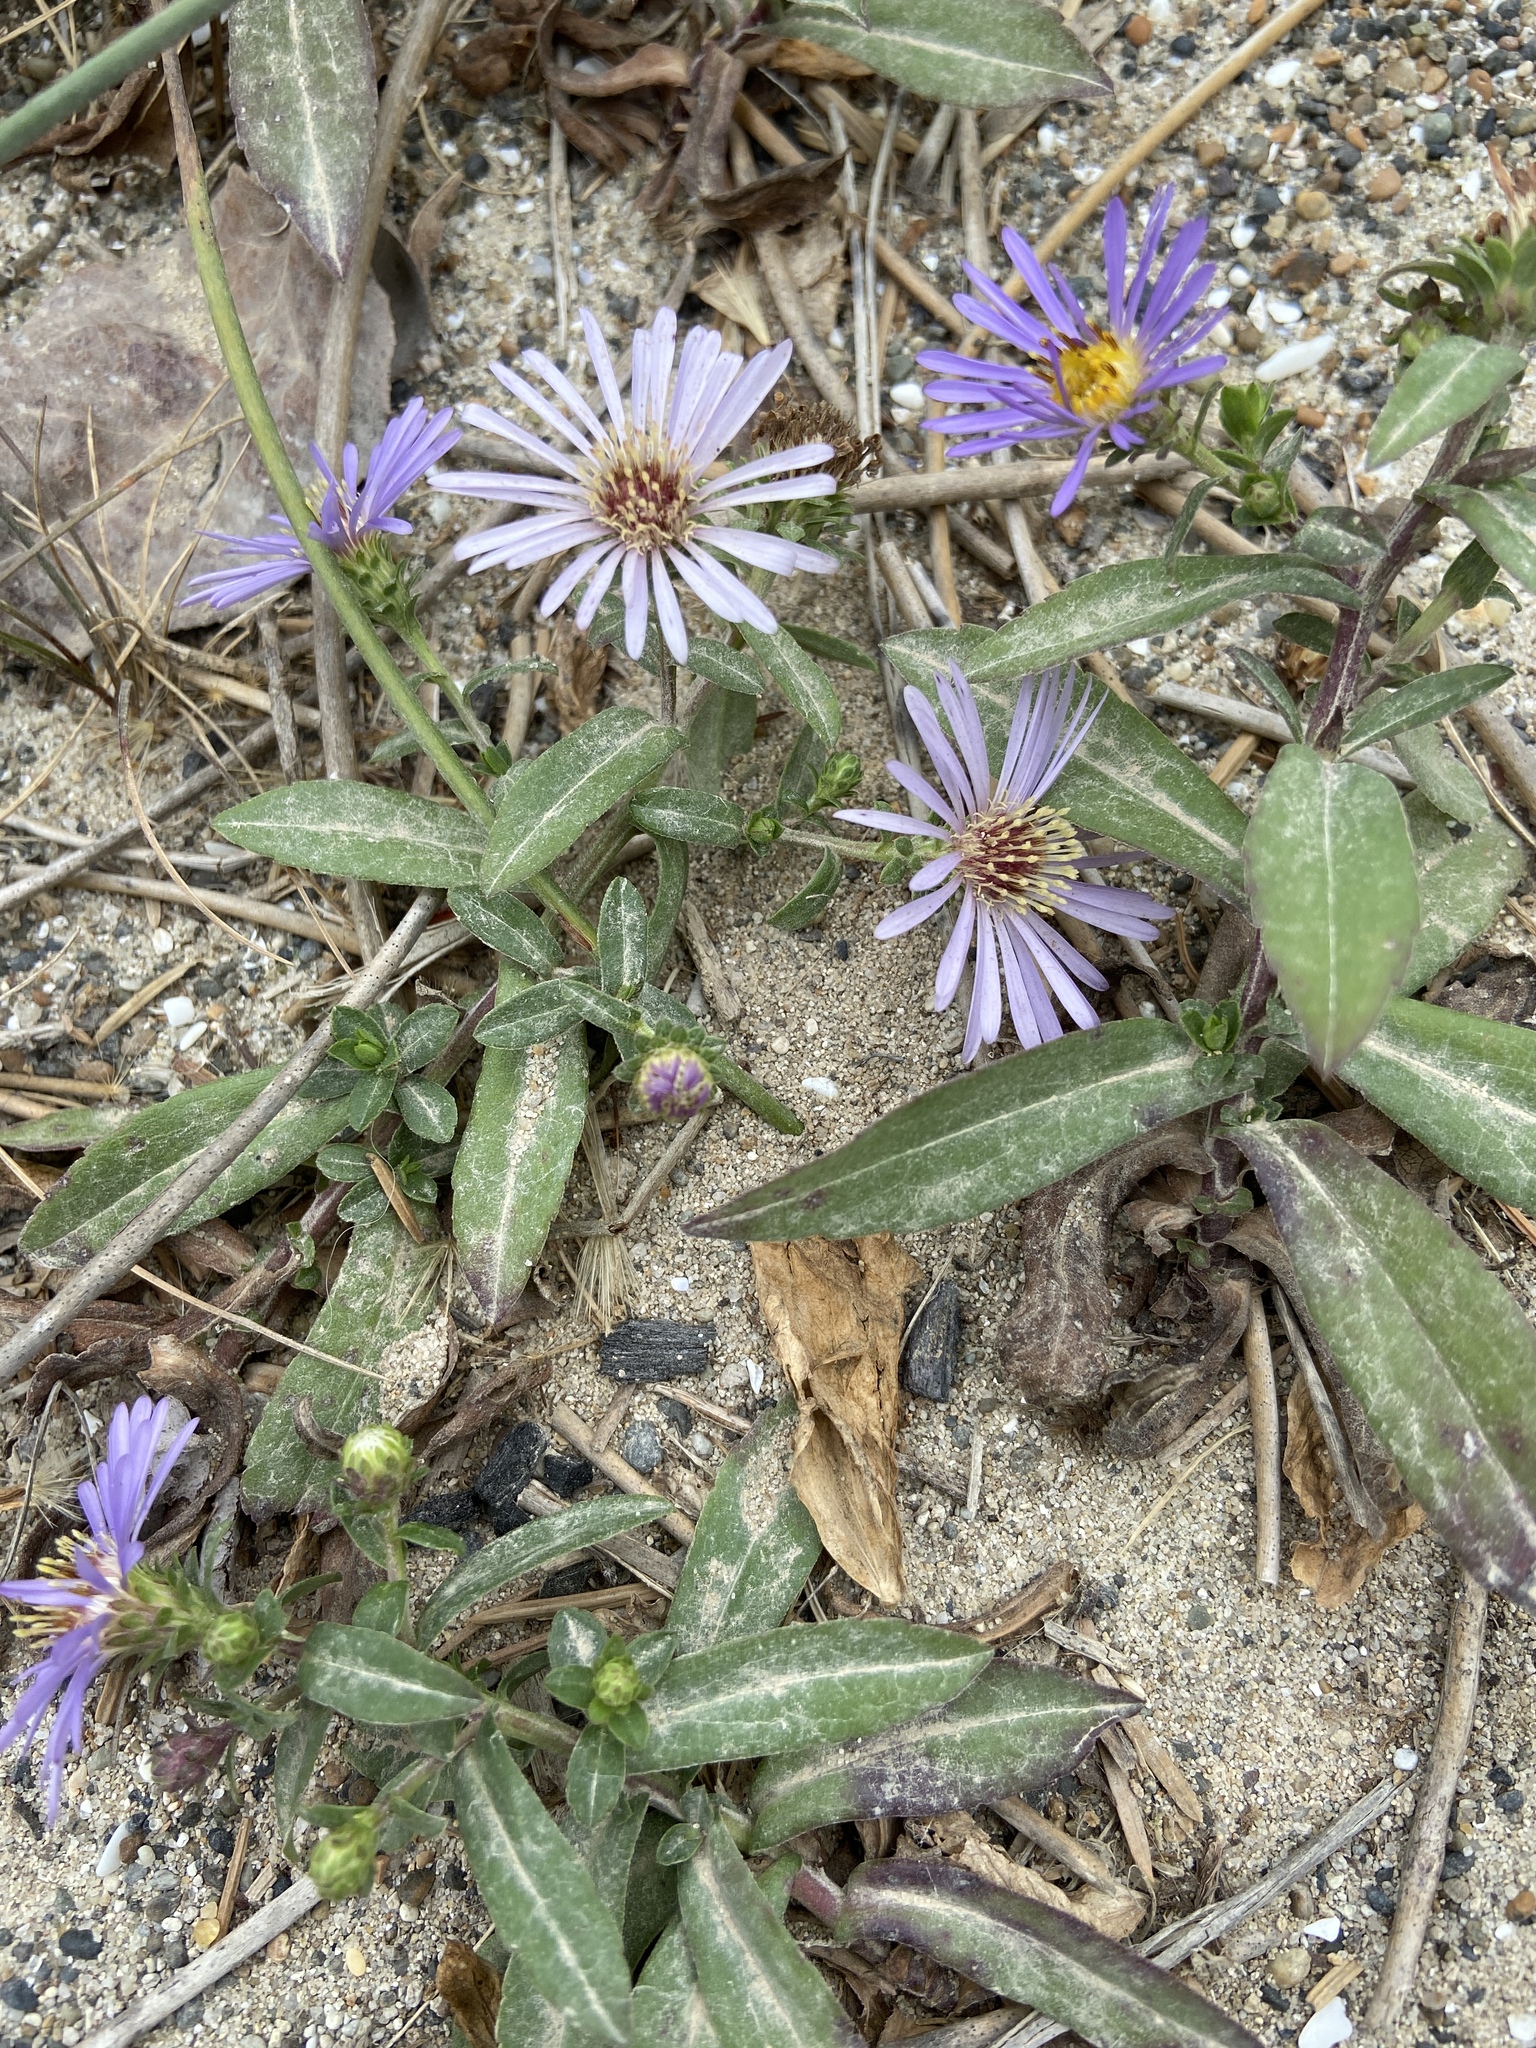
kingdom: Plantae
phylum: Tracheophyta
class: Magnoliopsida
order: Asterales
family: Asteraceae
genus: Symphyotrichum
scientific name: Symphyotrichum chilense
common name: Pacific aster
